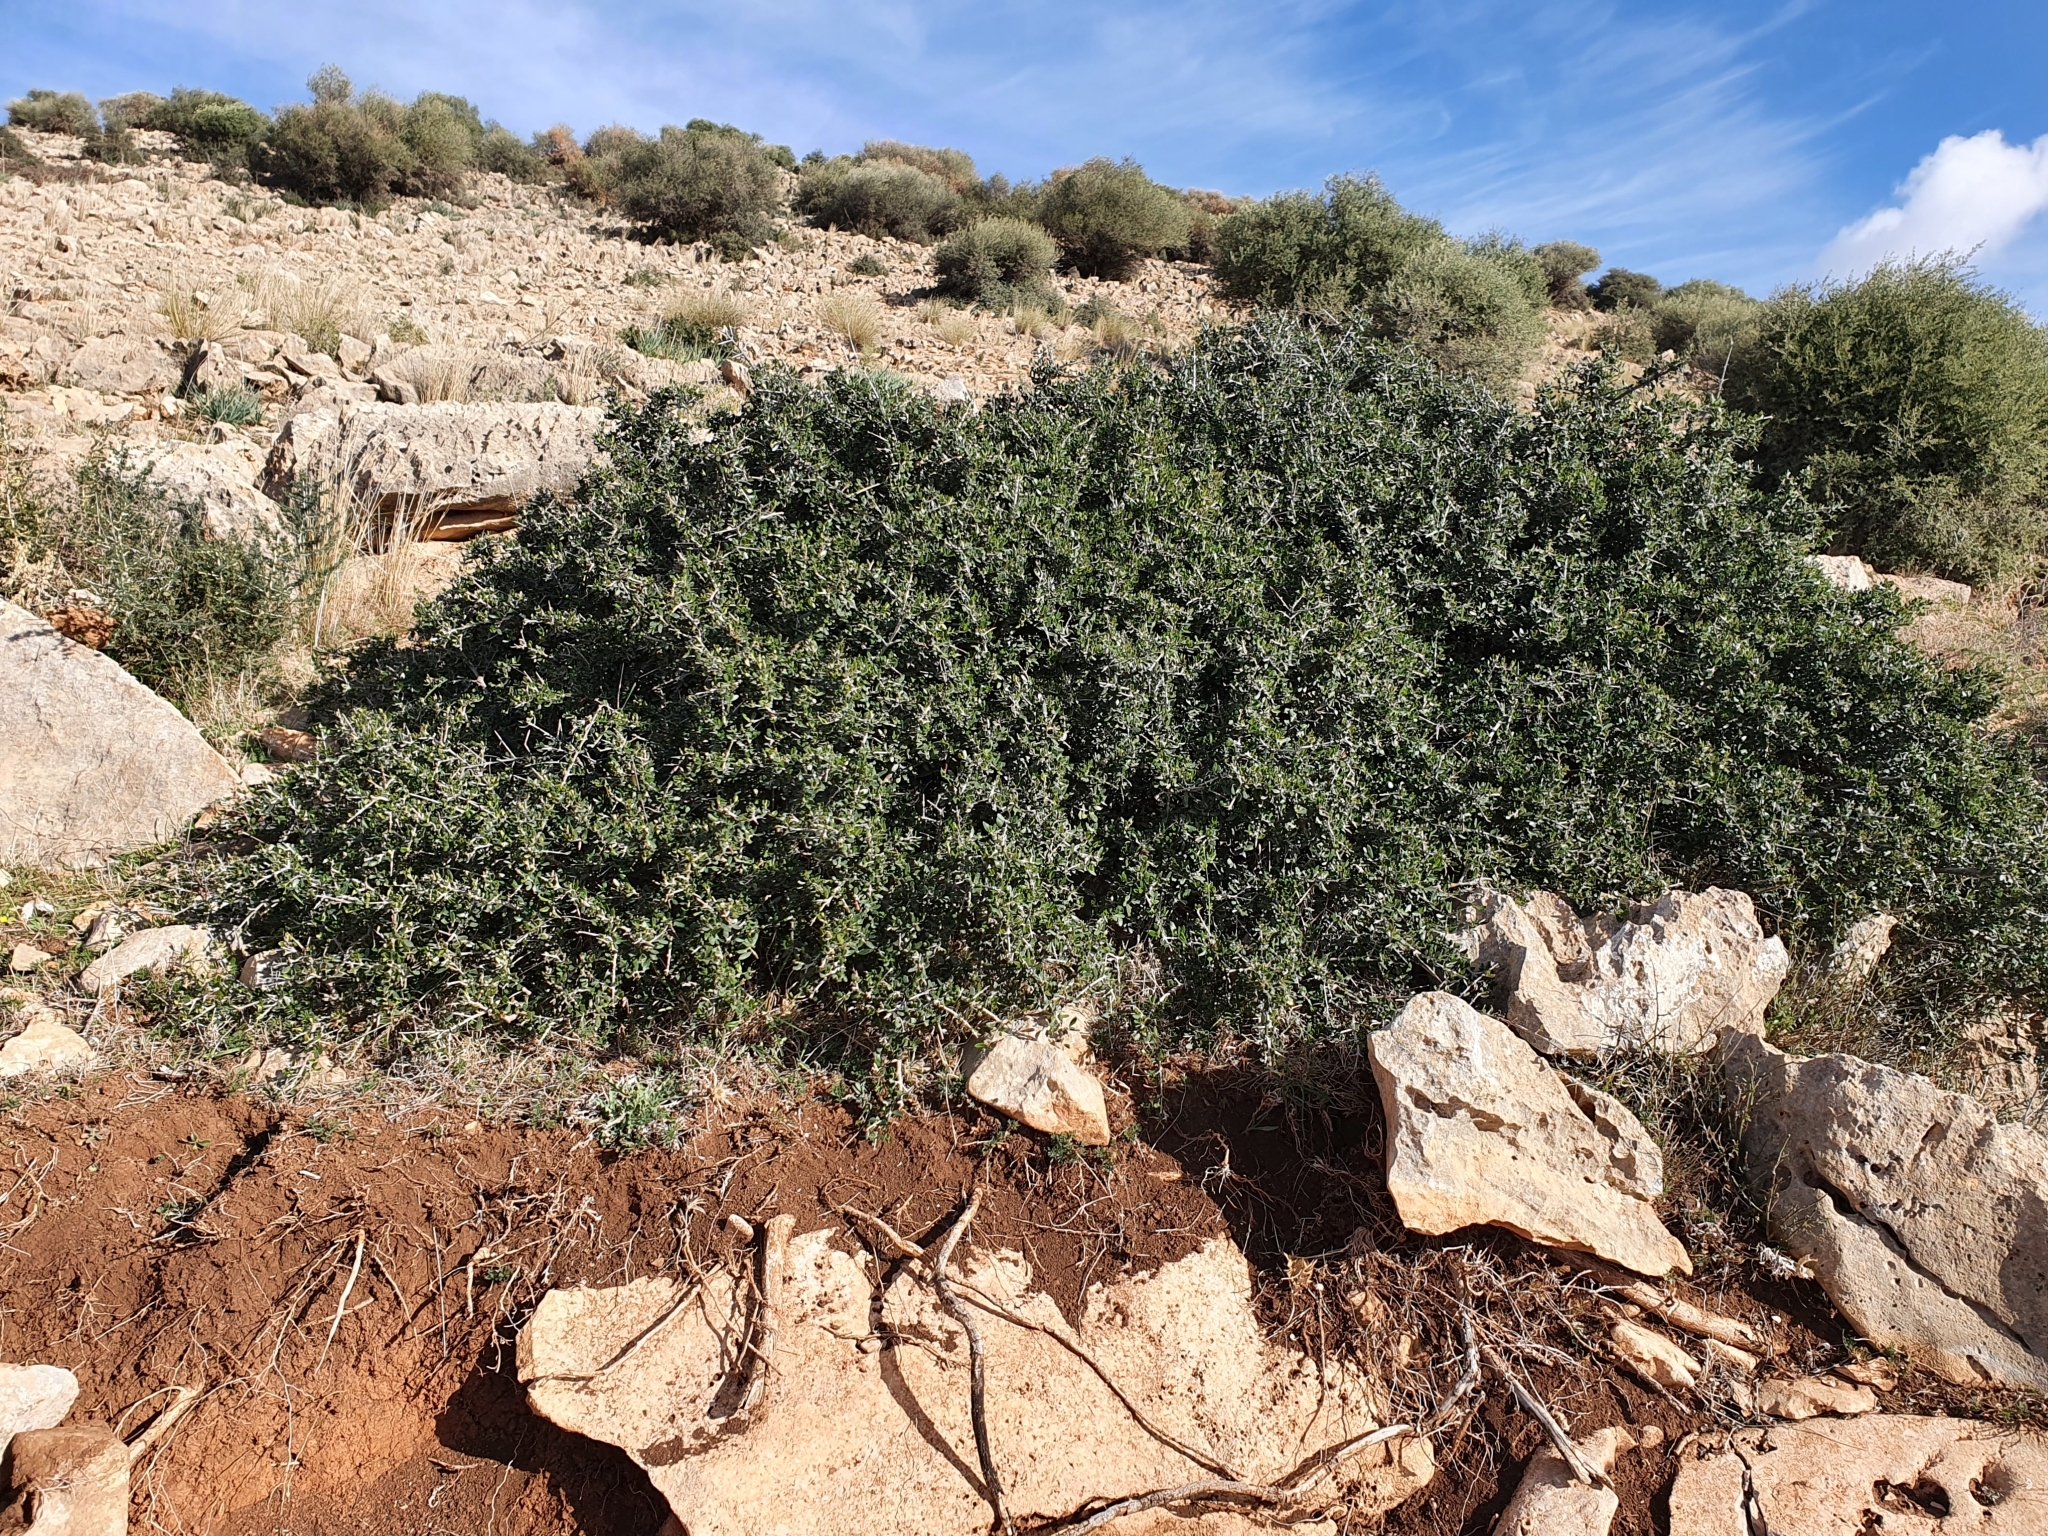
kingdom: Plantae
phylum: Tracheophyta
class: Magnoliopsida
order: Lamiales
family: Oleaceae
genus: Olea
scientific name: Olea europaea
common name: Olive
